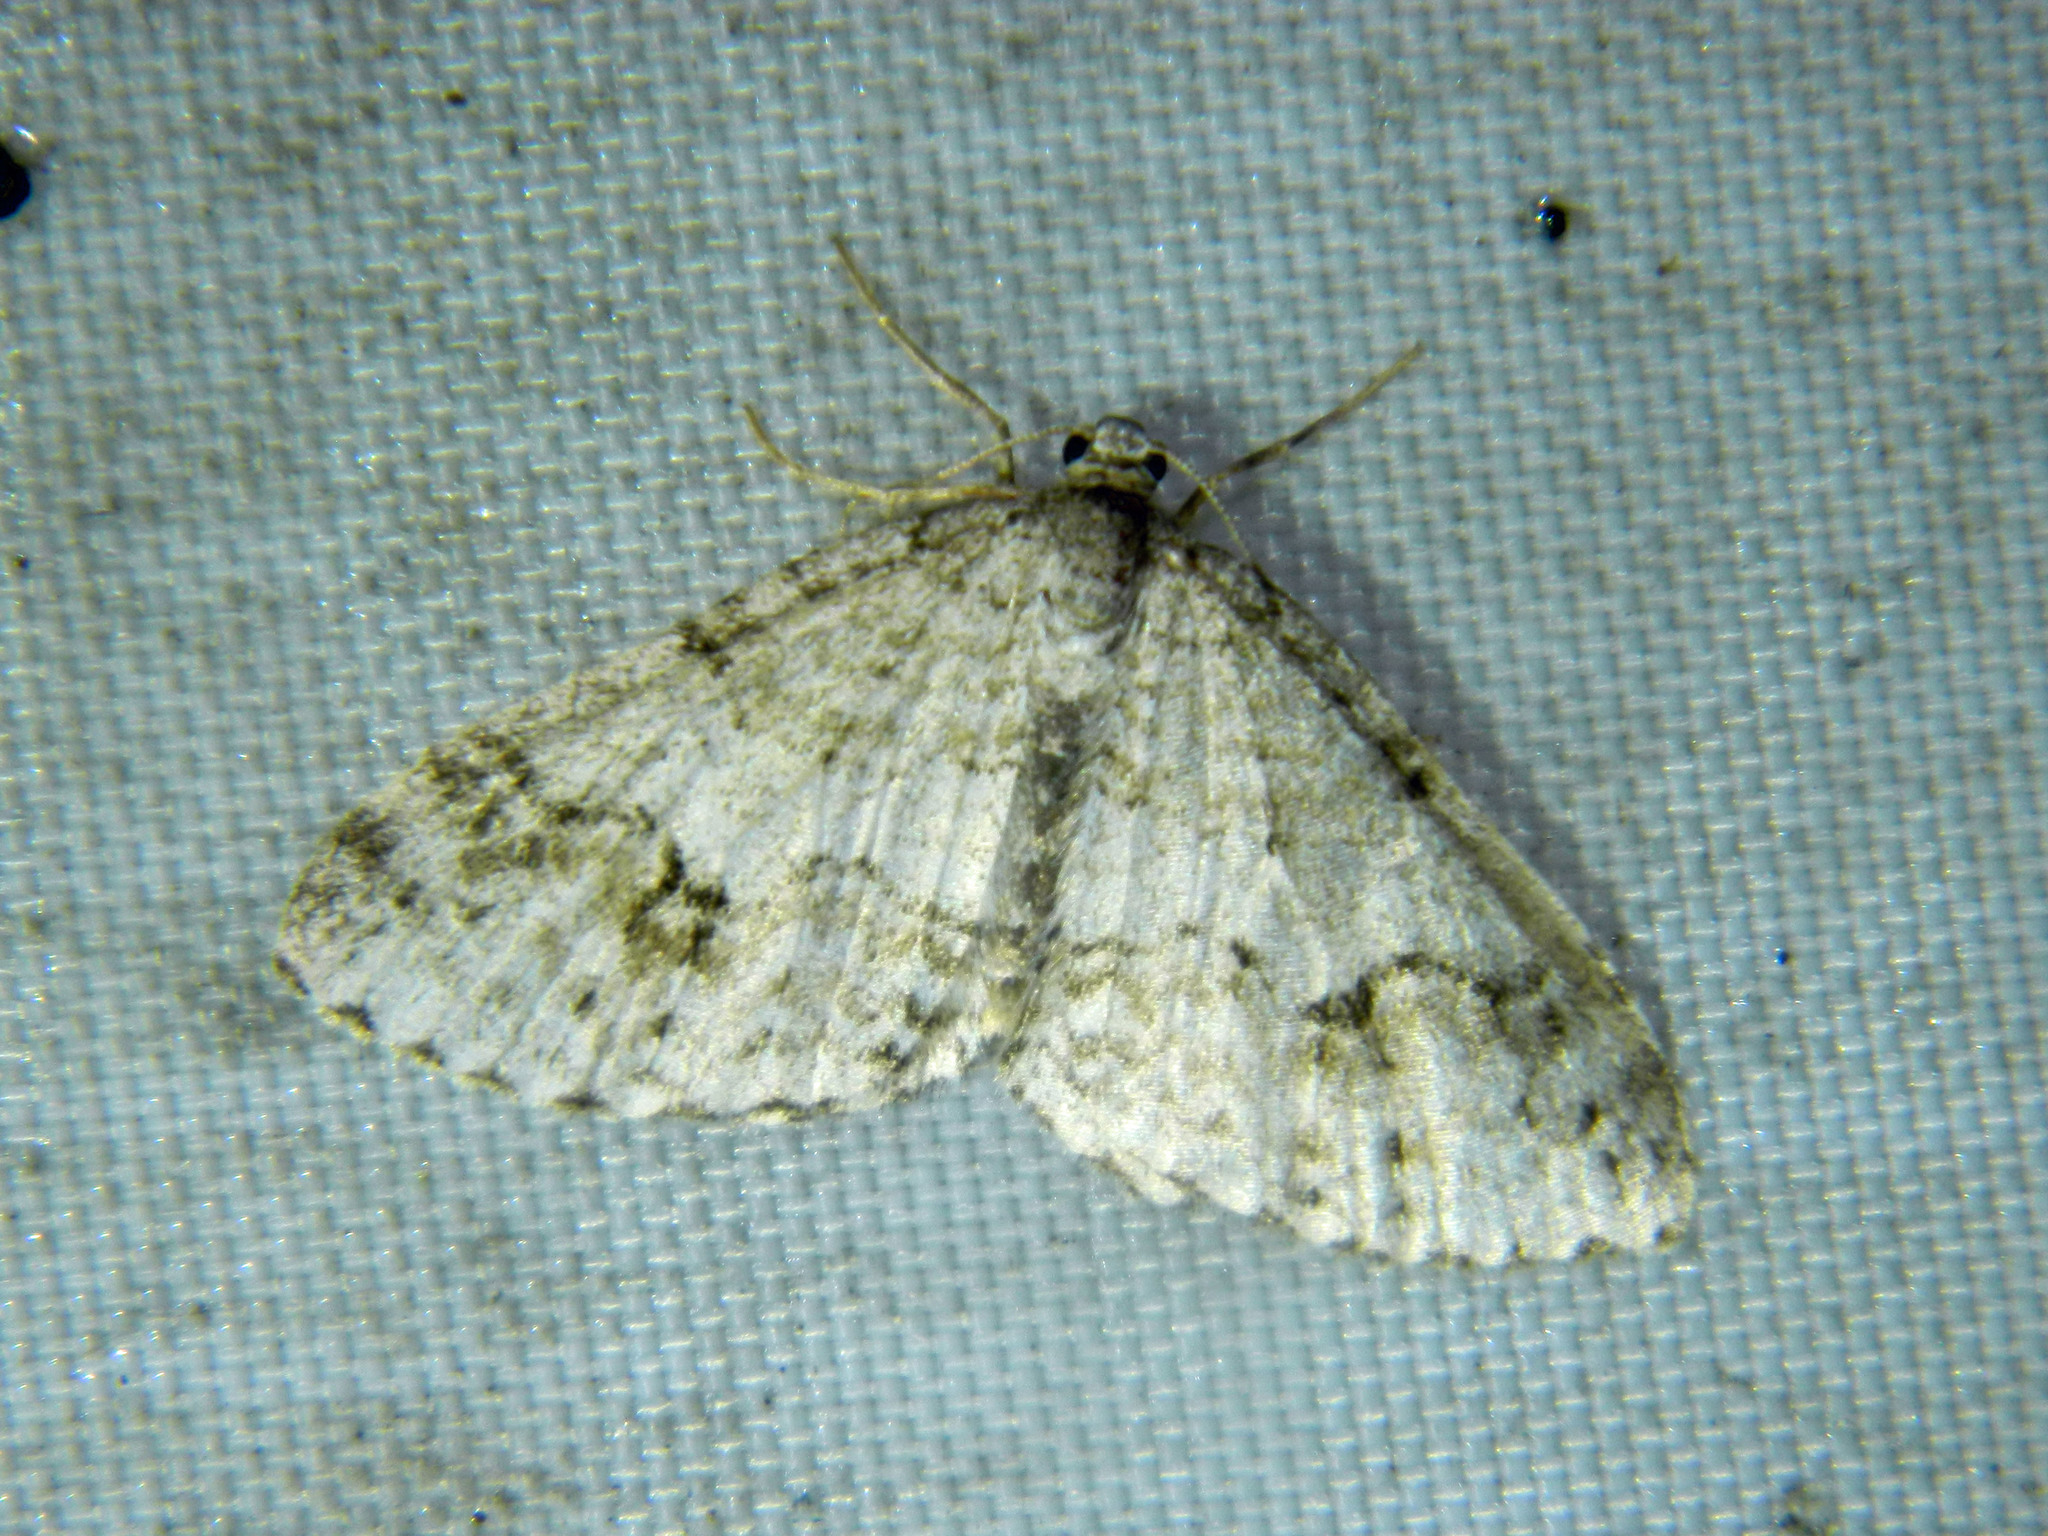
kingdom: Animalia
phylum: Arthropoda
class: Insecta
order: Lepidoptera
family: Geometridae
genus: Venusia
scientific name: Venusia cambrica
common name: Welsh wave
